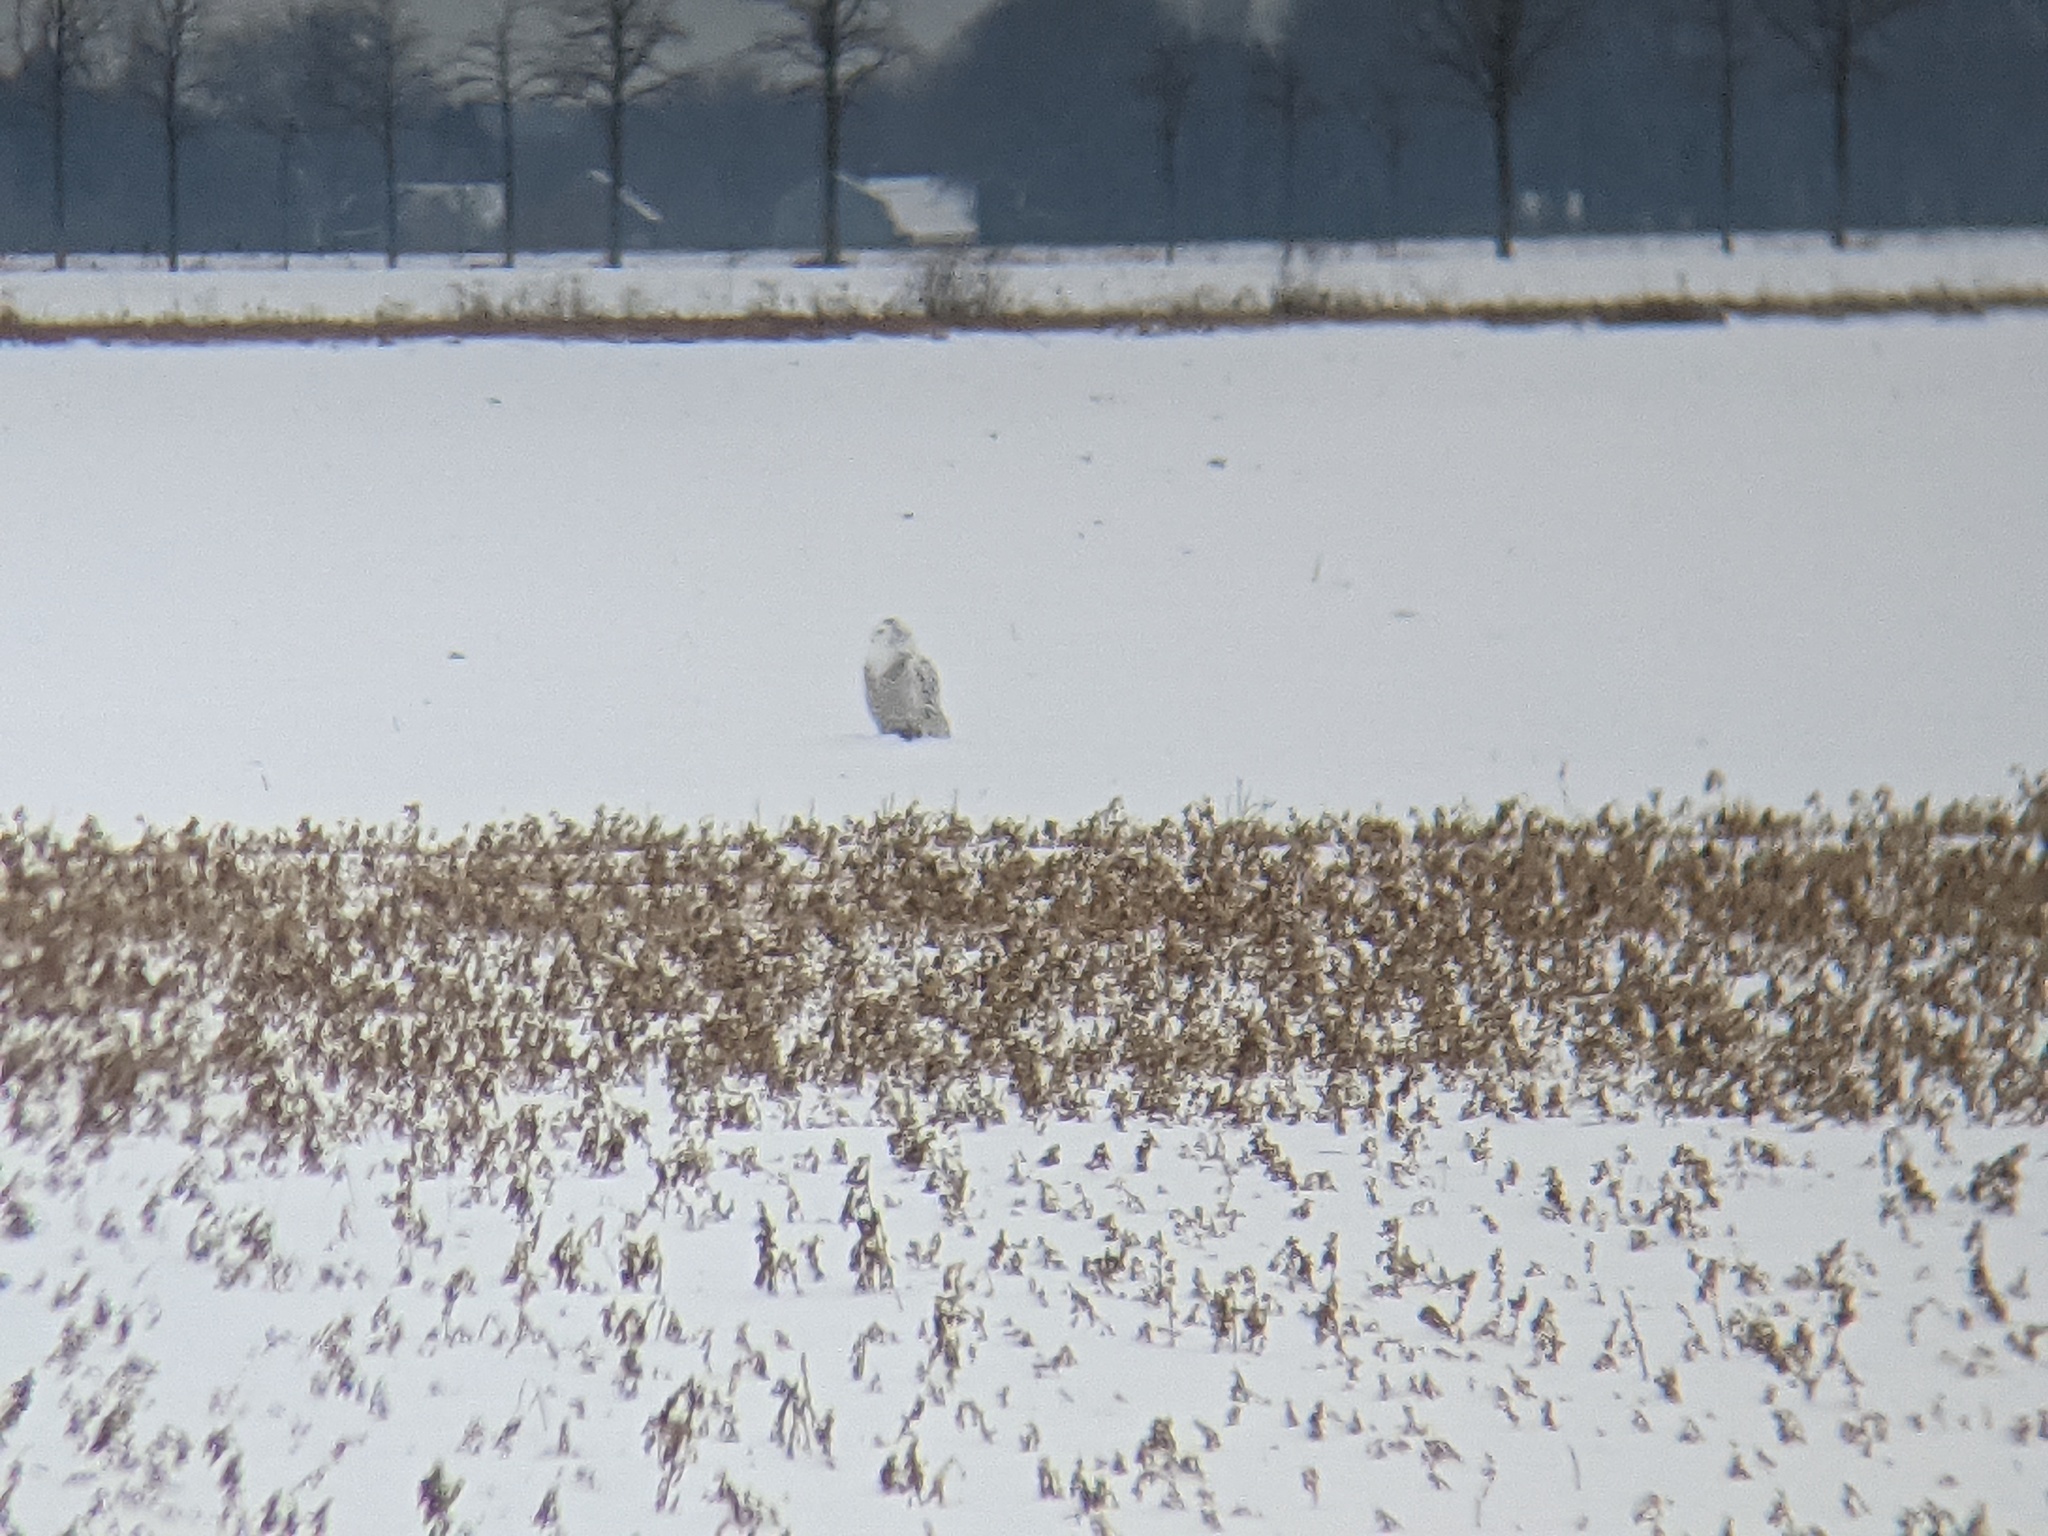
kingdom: Animalia
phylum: Chordata
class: Aves
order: Strigiformes
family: Strigidae
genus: Bubo
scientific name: Bubo scandiacus
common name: Snowy owl
